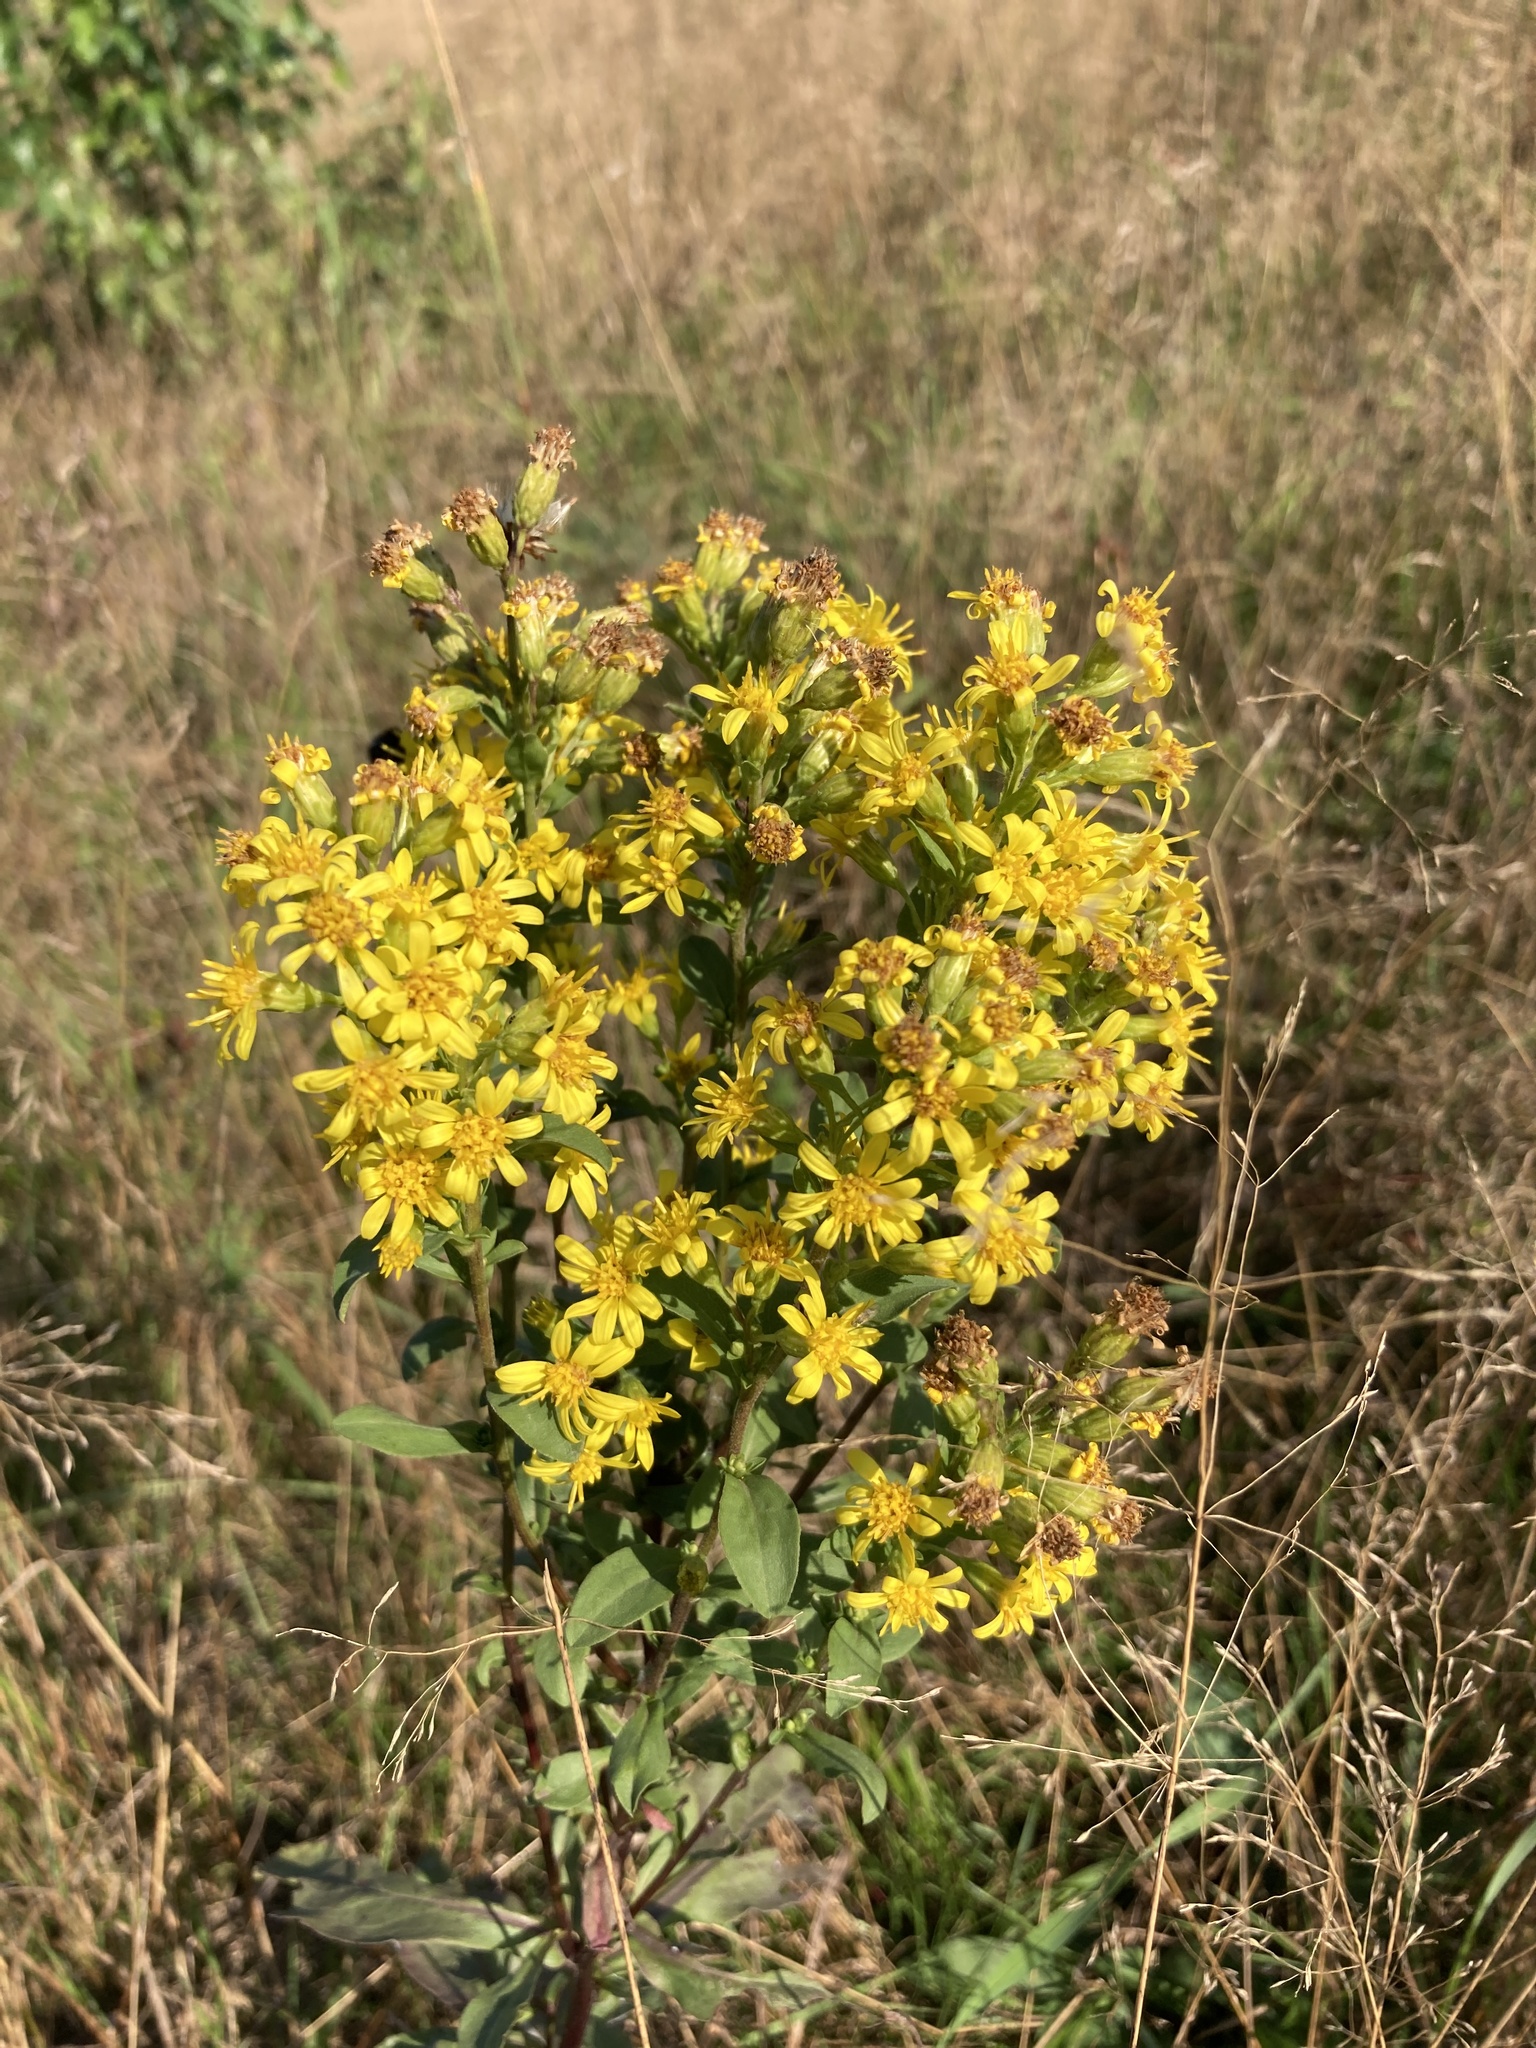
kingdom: Plantae
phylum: Tracheophyta
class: Magnoliopsida
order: Asterales
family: Asteraceae
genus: Solidago
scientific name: Solidago virgaurea
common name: Goldenrod
